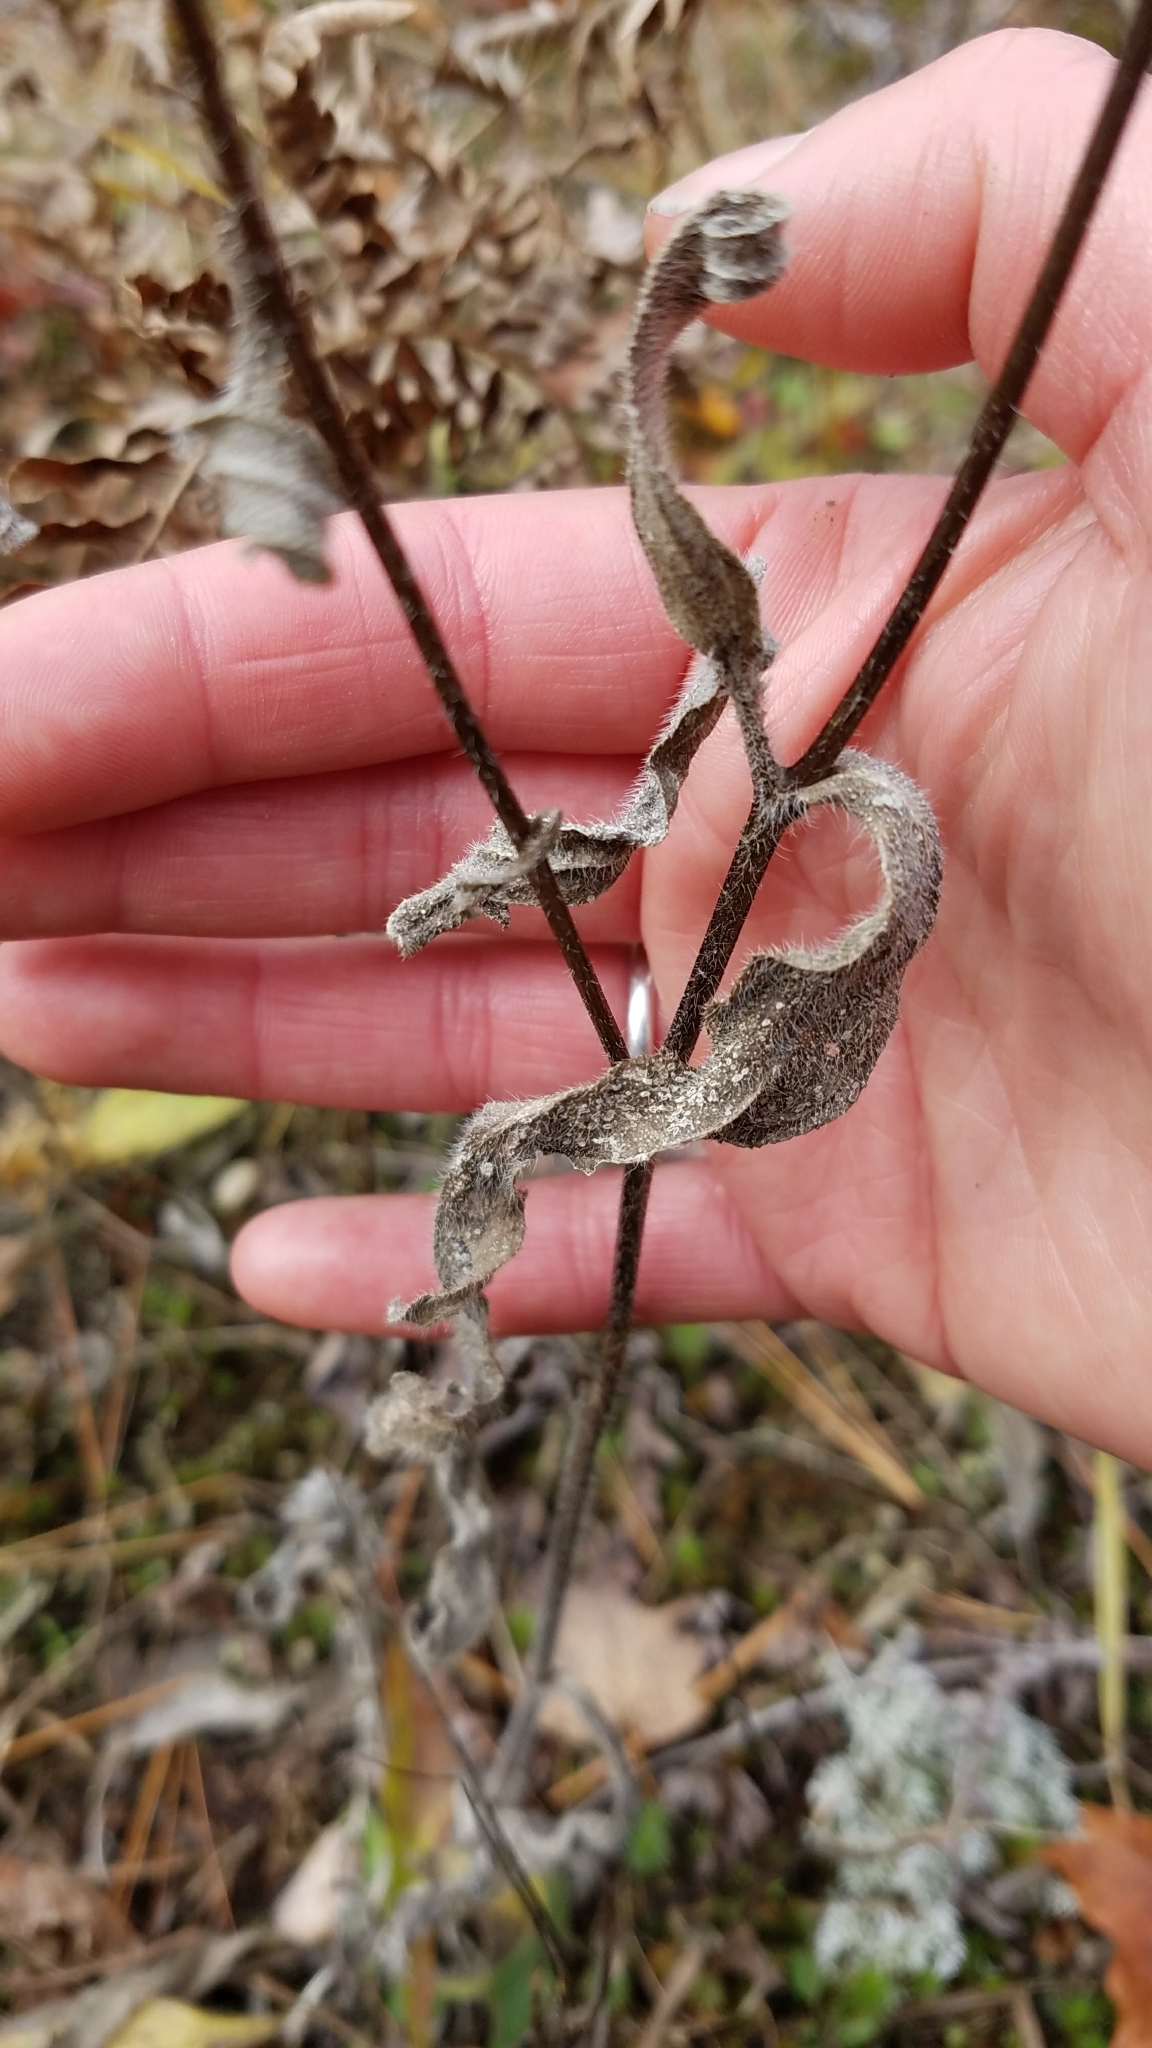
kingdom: Plantae
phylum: Tracheophyta
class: Magnoliopsida
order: Asterales
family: Asteraceae
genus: Rudbeckia
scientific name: Rudbeckia hirta
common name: Black-eyed-susan
